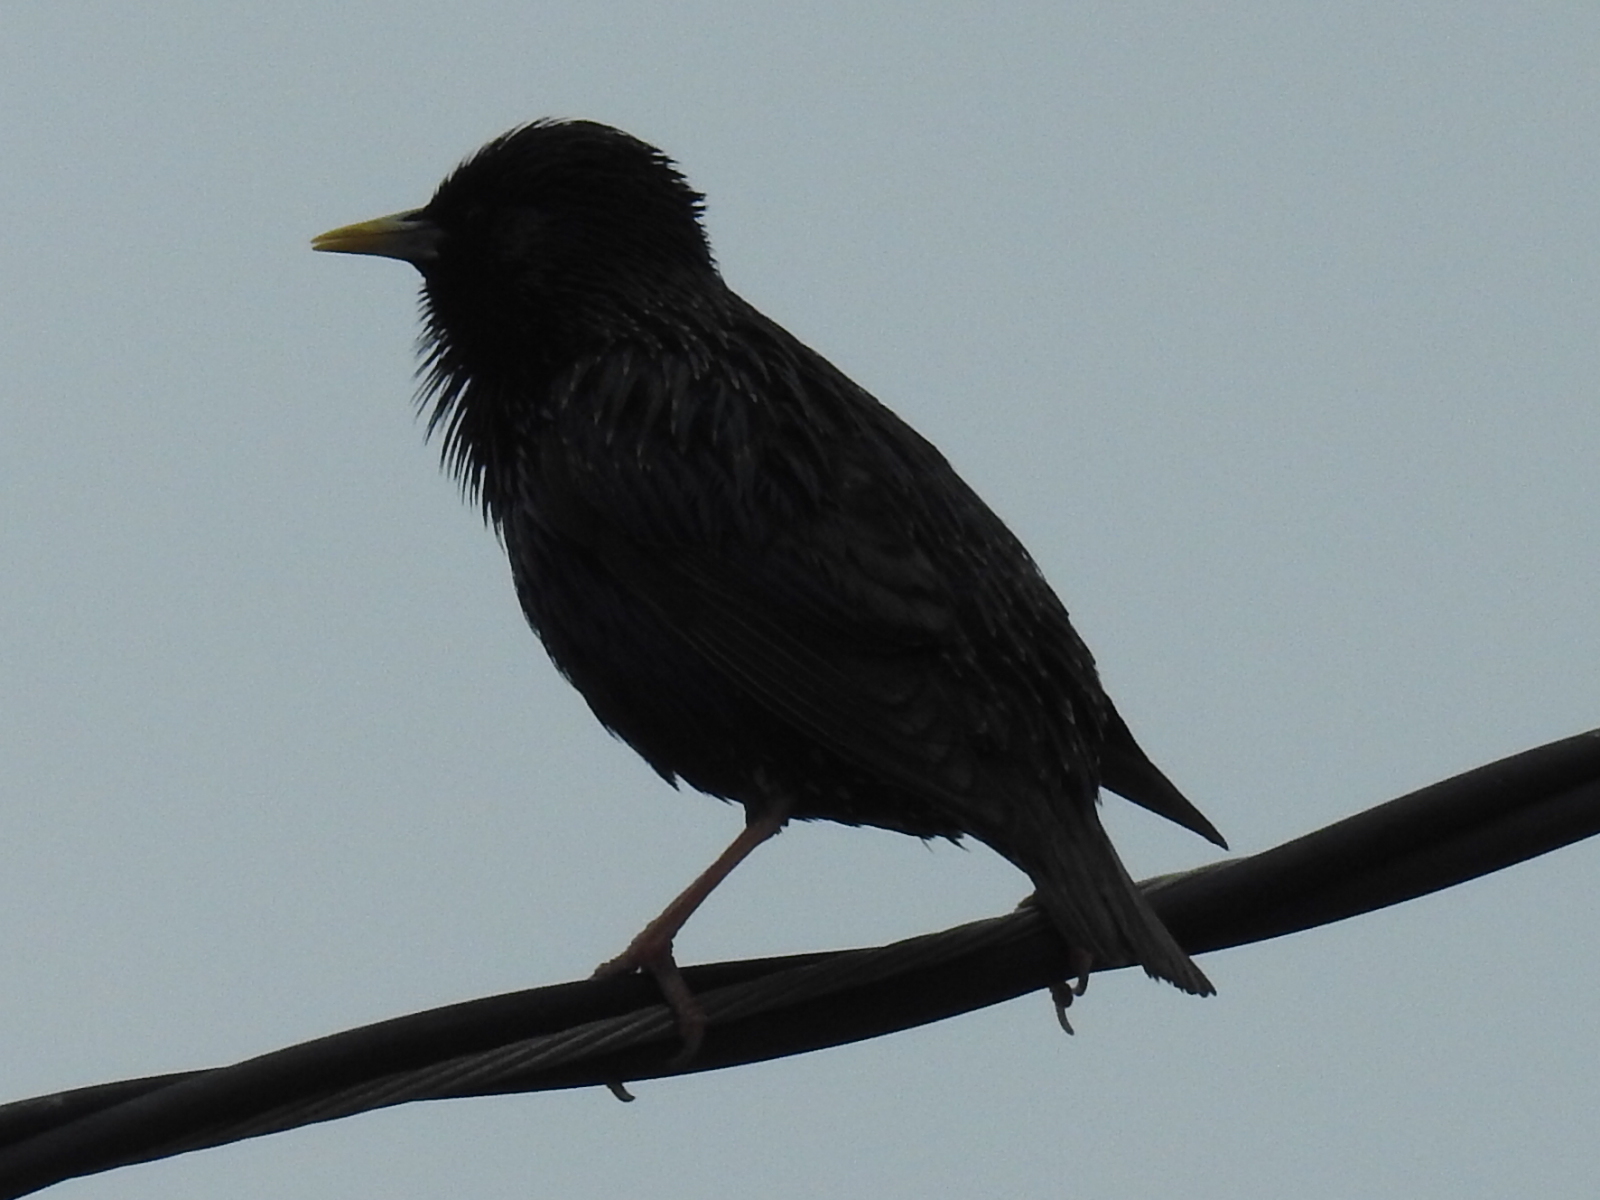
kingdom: Animalia
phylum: Chordata
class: Aves
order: Passeriformes
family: Sturnidae
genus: Sturnus
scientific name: Sturnus vulgaris
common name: Common starling
